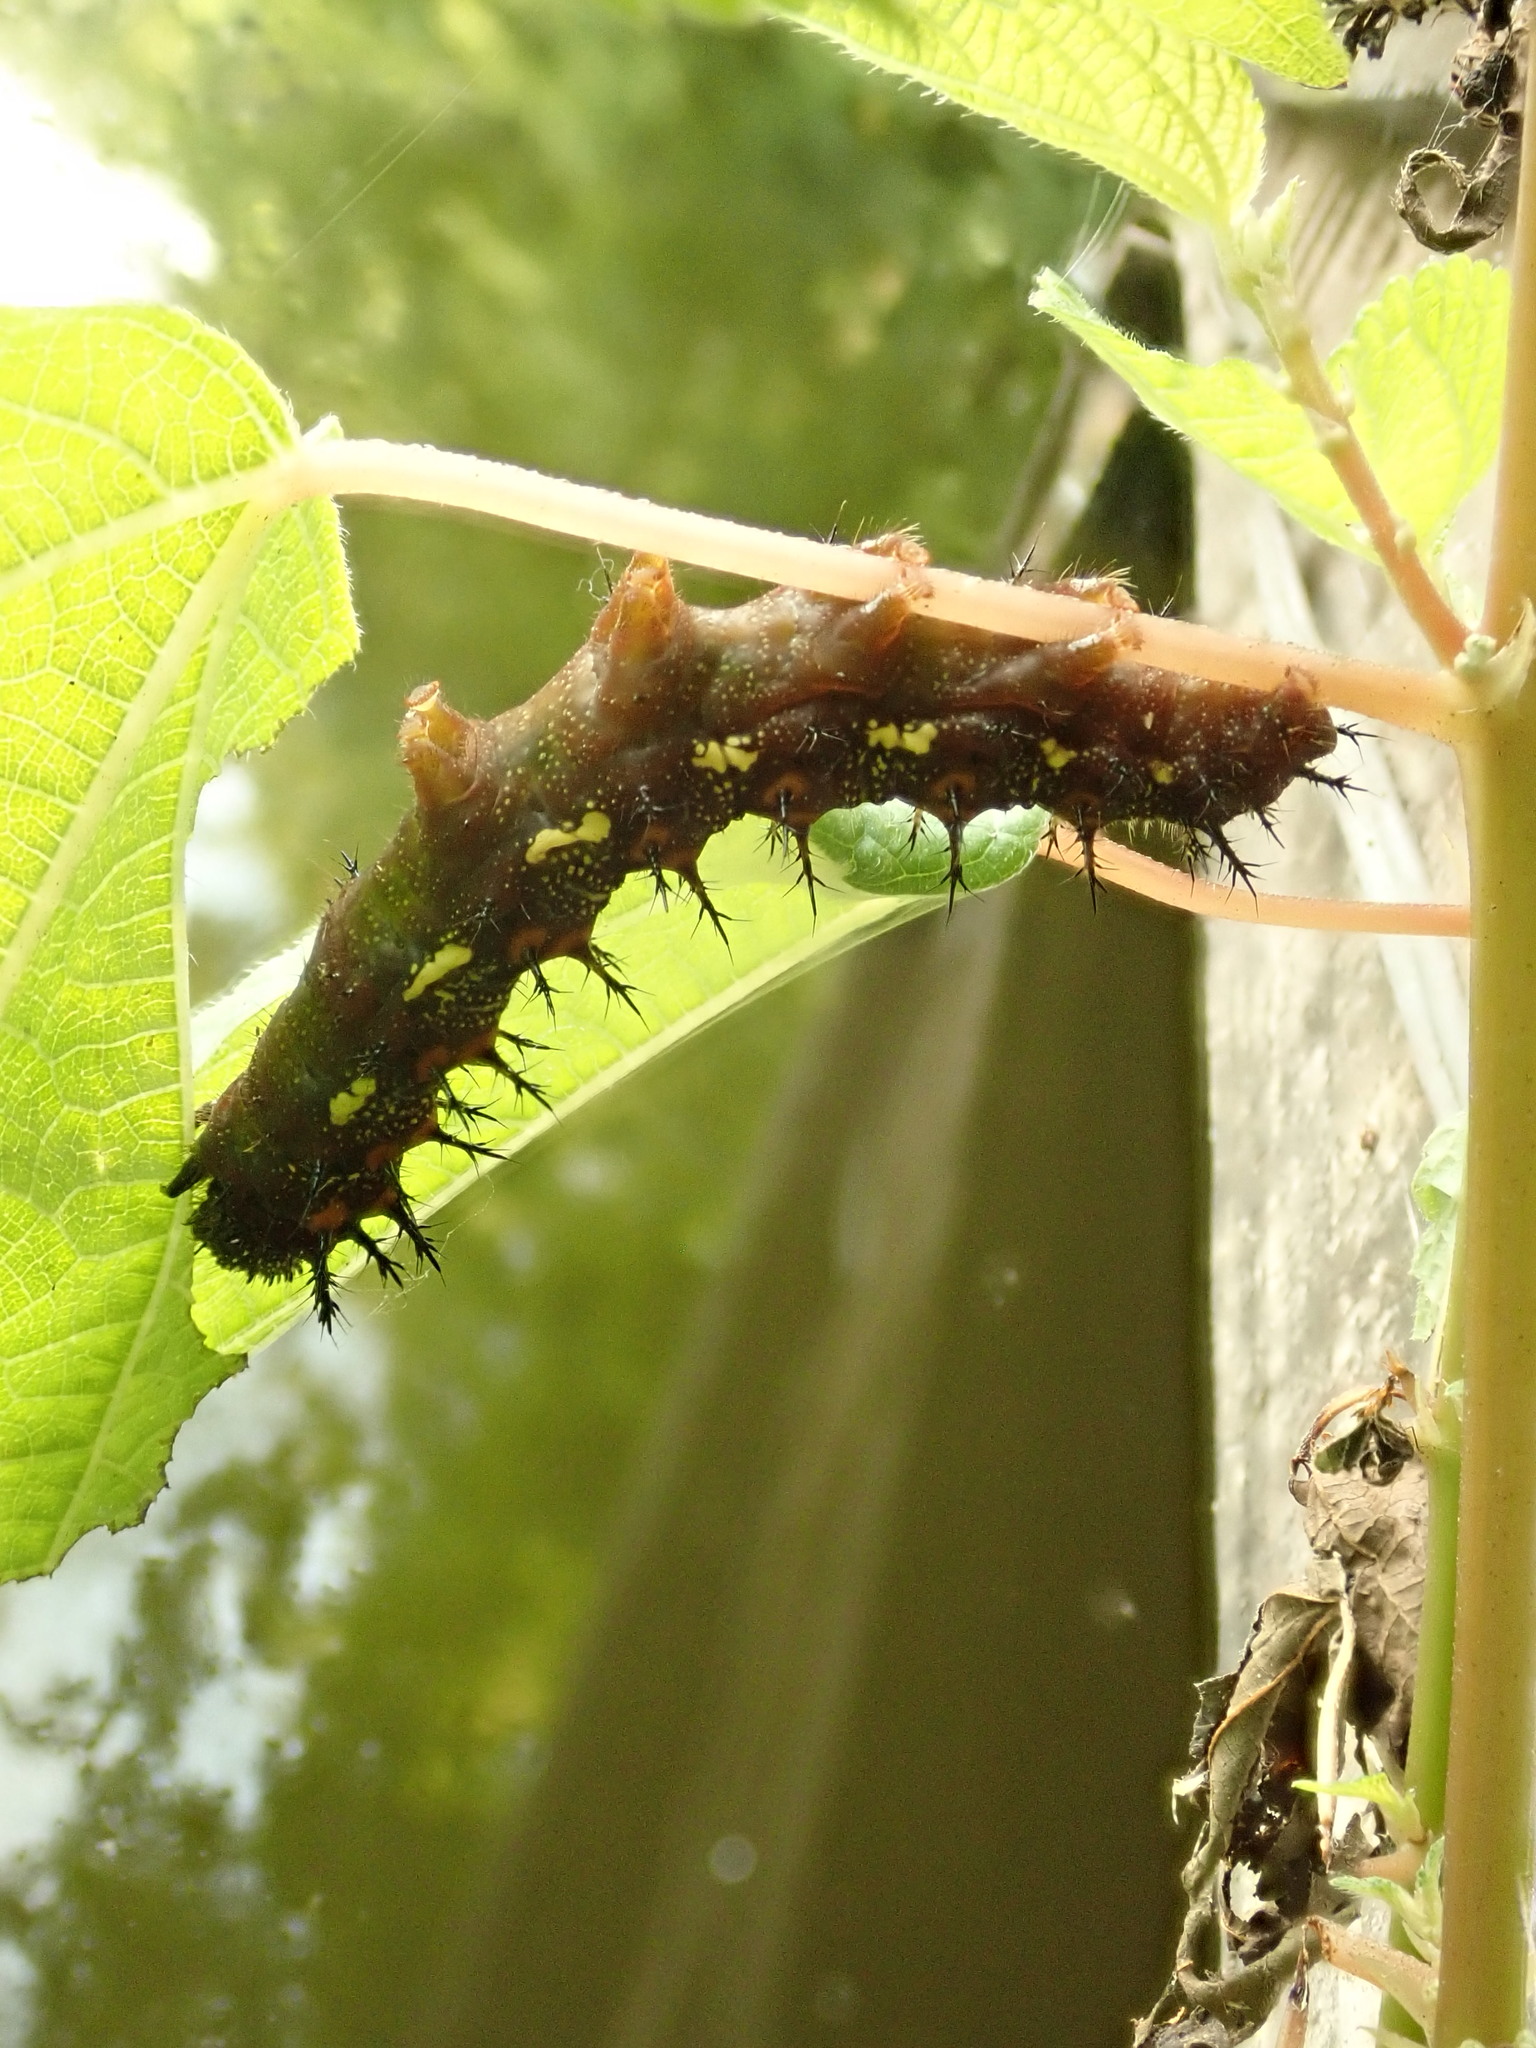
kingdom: Animalia
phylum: Arthropoda
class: Insecta
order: Lepidoptera
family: Nymphalidae
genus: Polygonia
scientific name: Polygonia interrogationis
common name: Question mark
